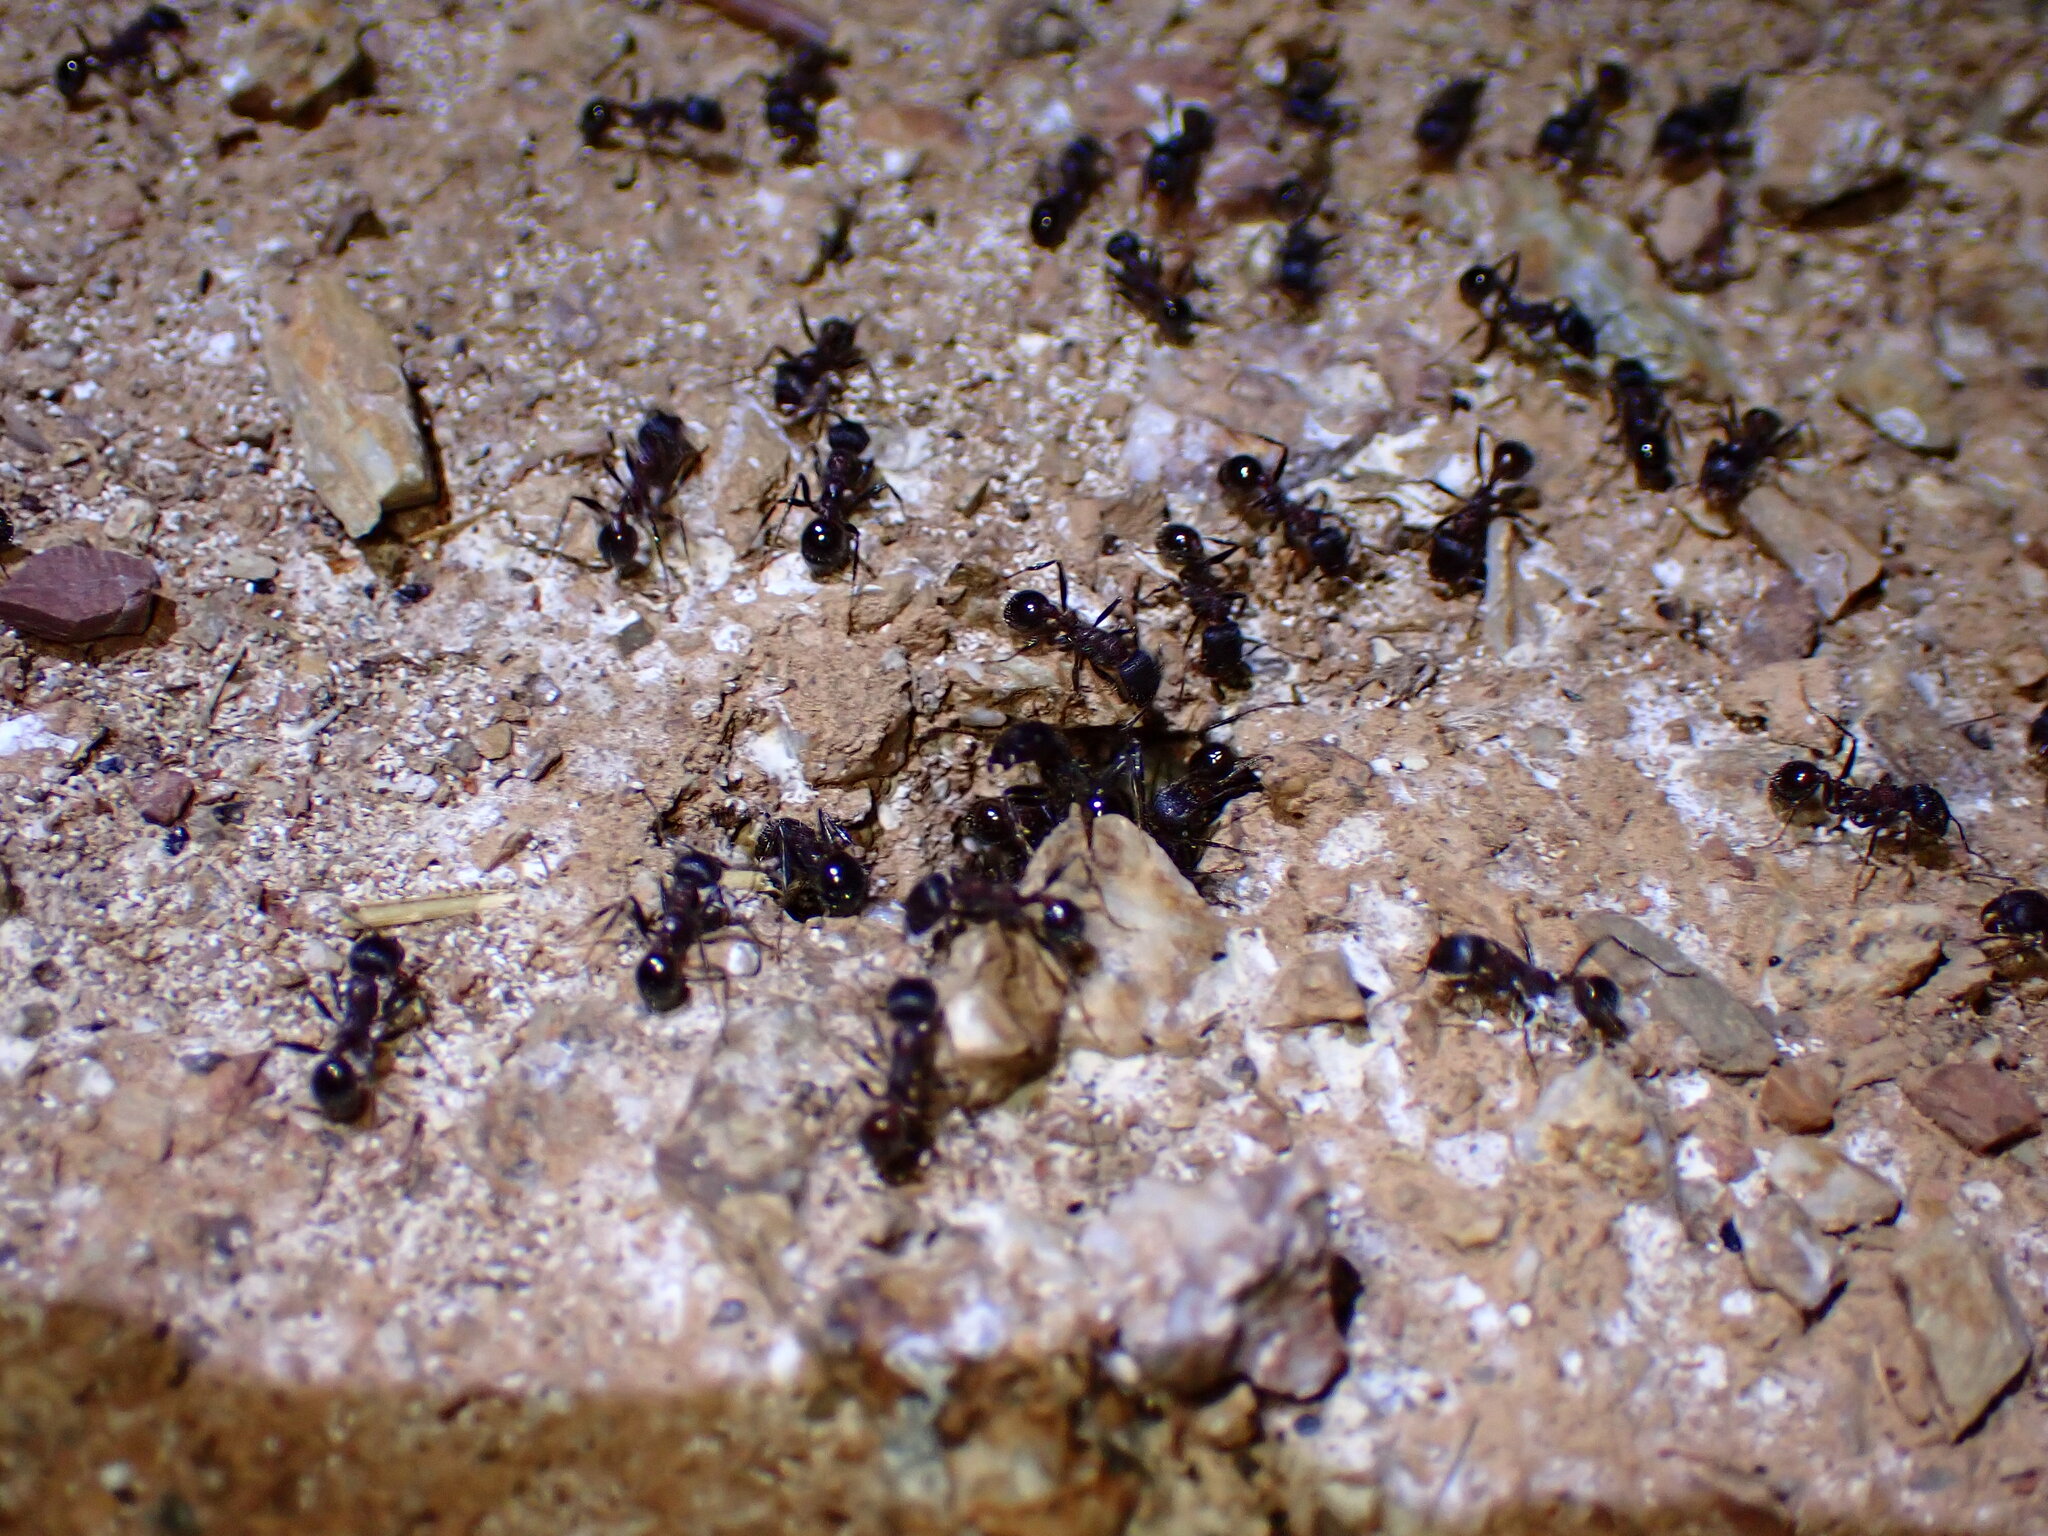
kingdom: Animalia
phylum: Arthropoda
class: Insecta
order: Hymenoptera
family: Formicidae
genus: Veromessor
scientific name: Veromessor andrei
